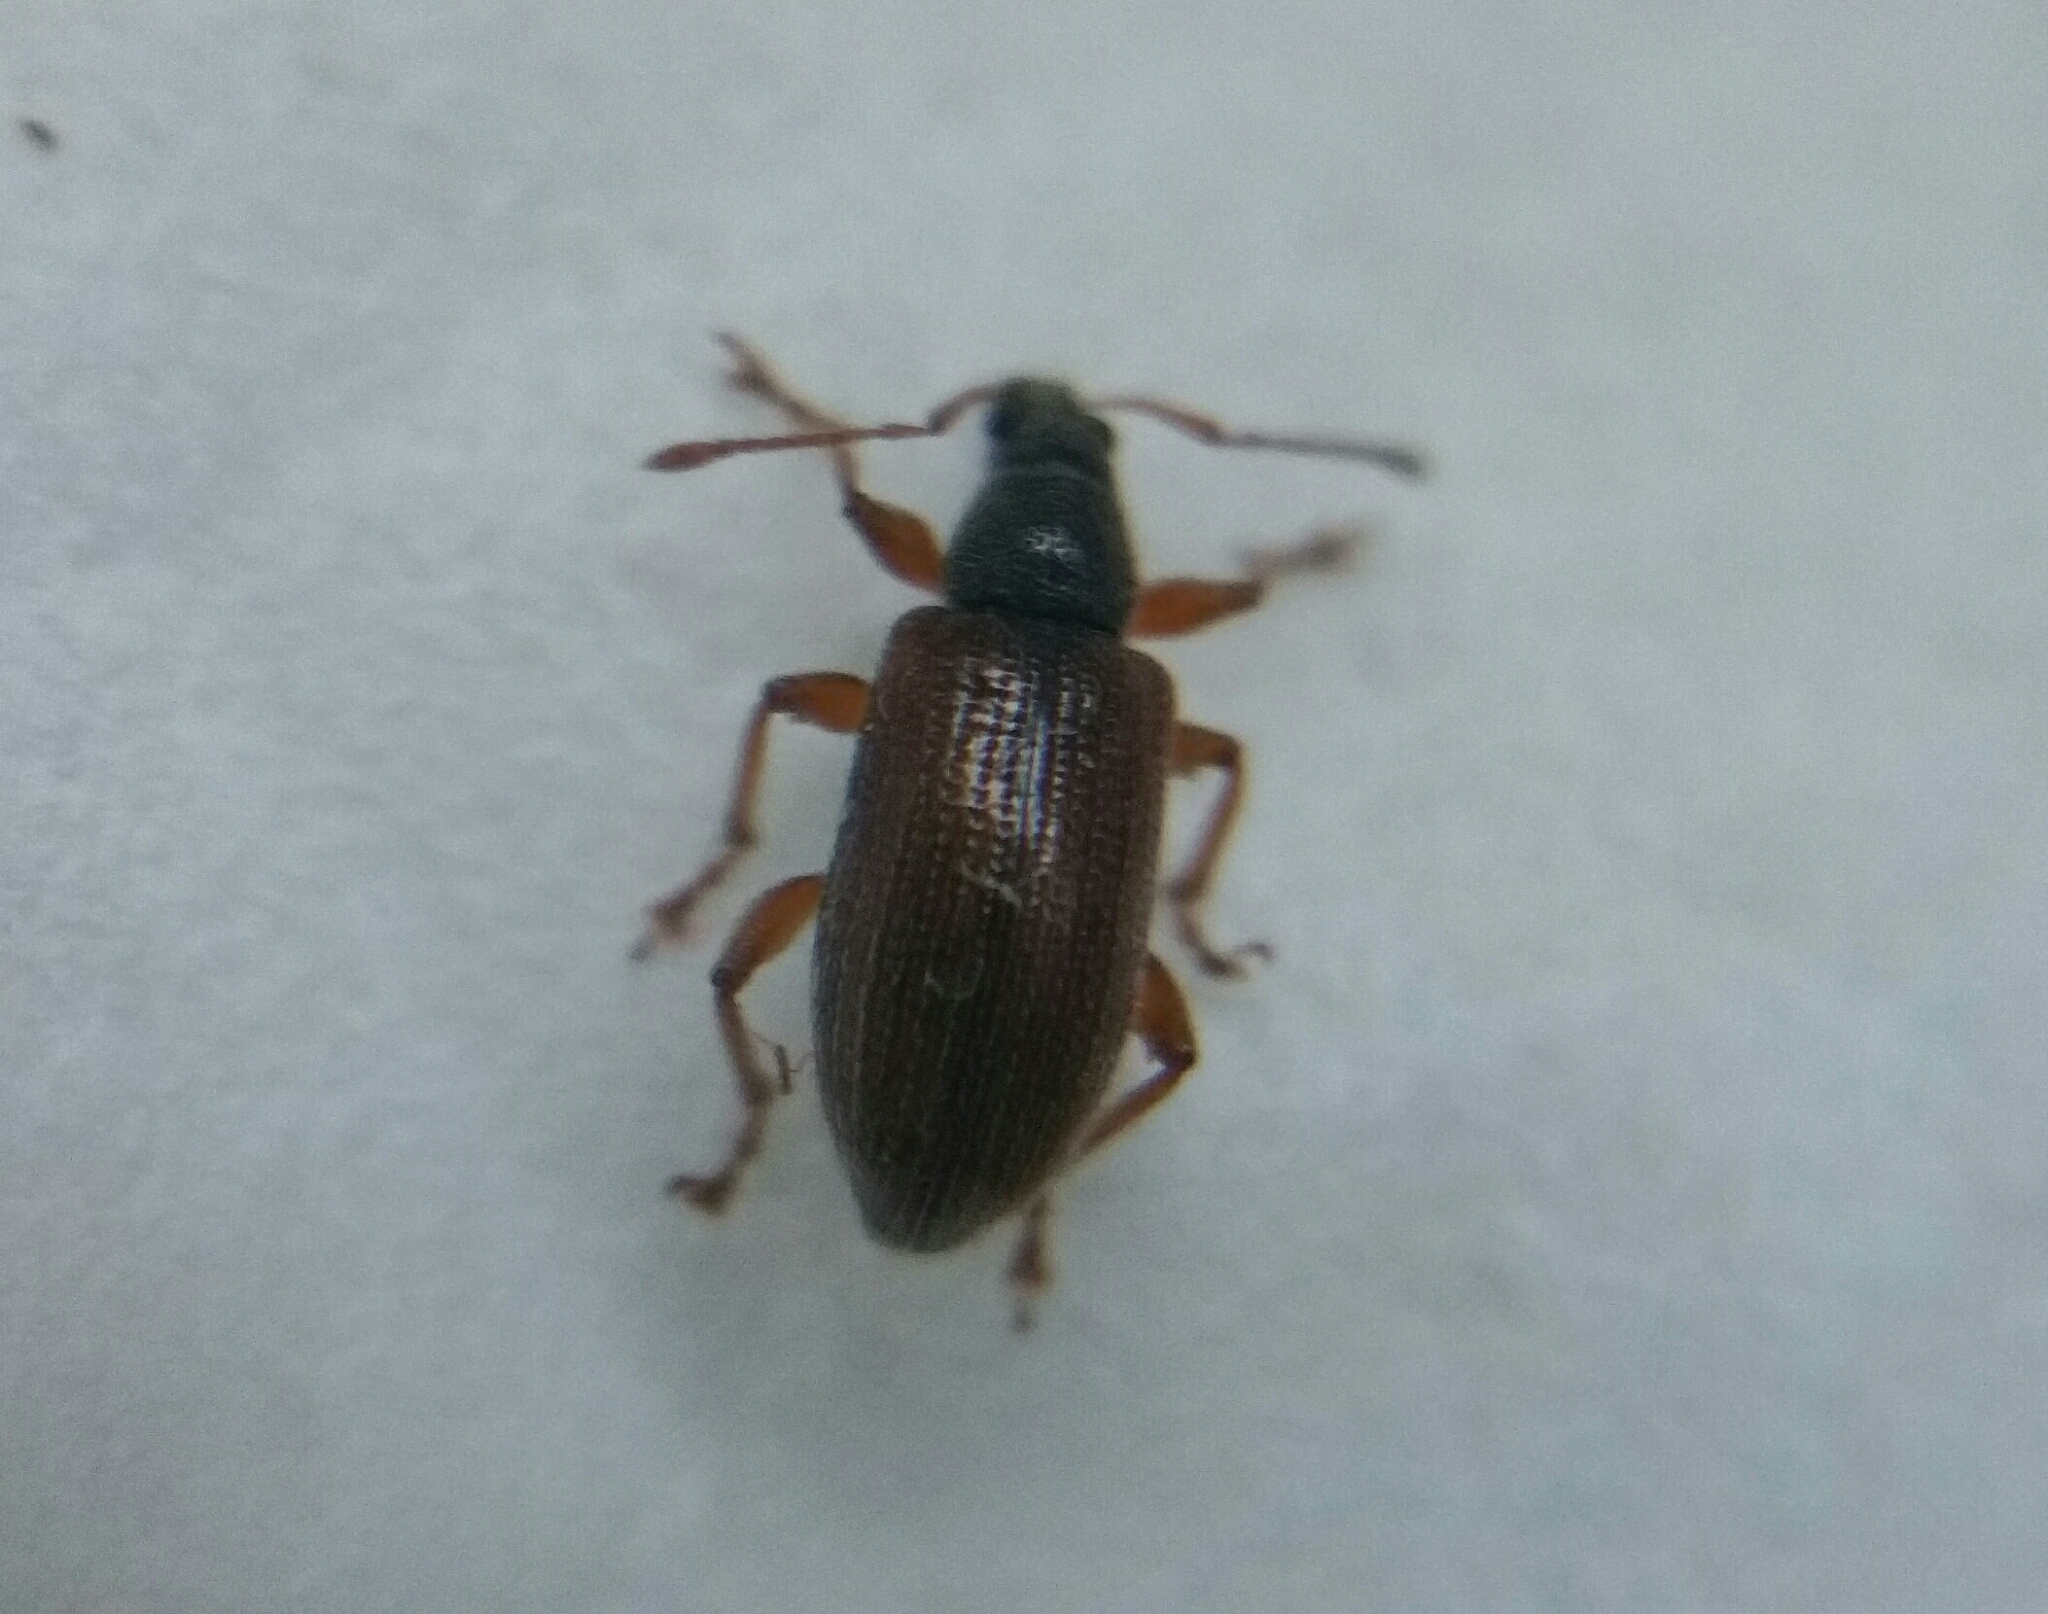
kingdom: Animalia
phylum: Arthropoda
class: Insecta
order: Coleoptera
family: Curculionidae
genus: Phyllobius
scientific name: Phyllobius oblongus
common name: Brown leaf weevil
